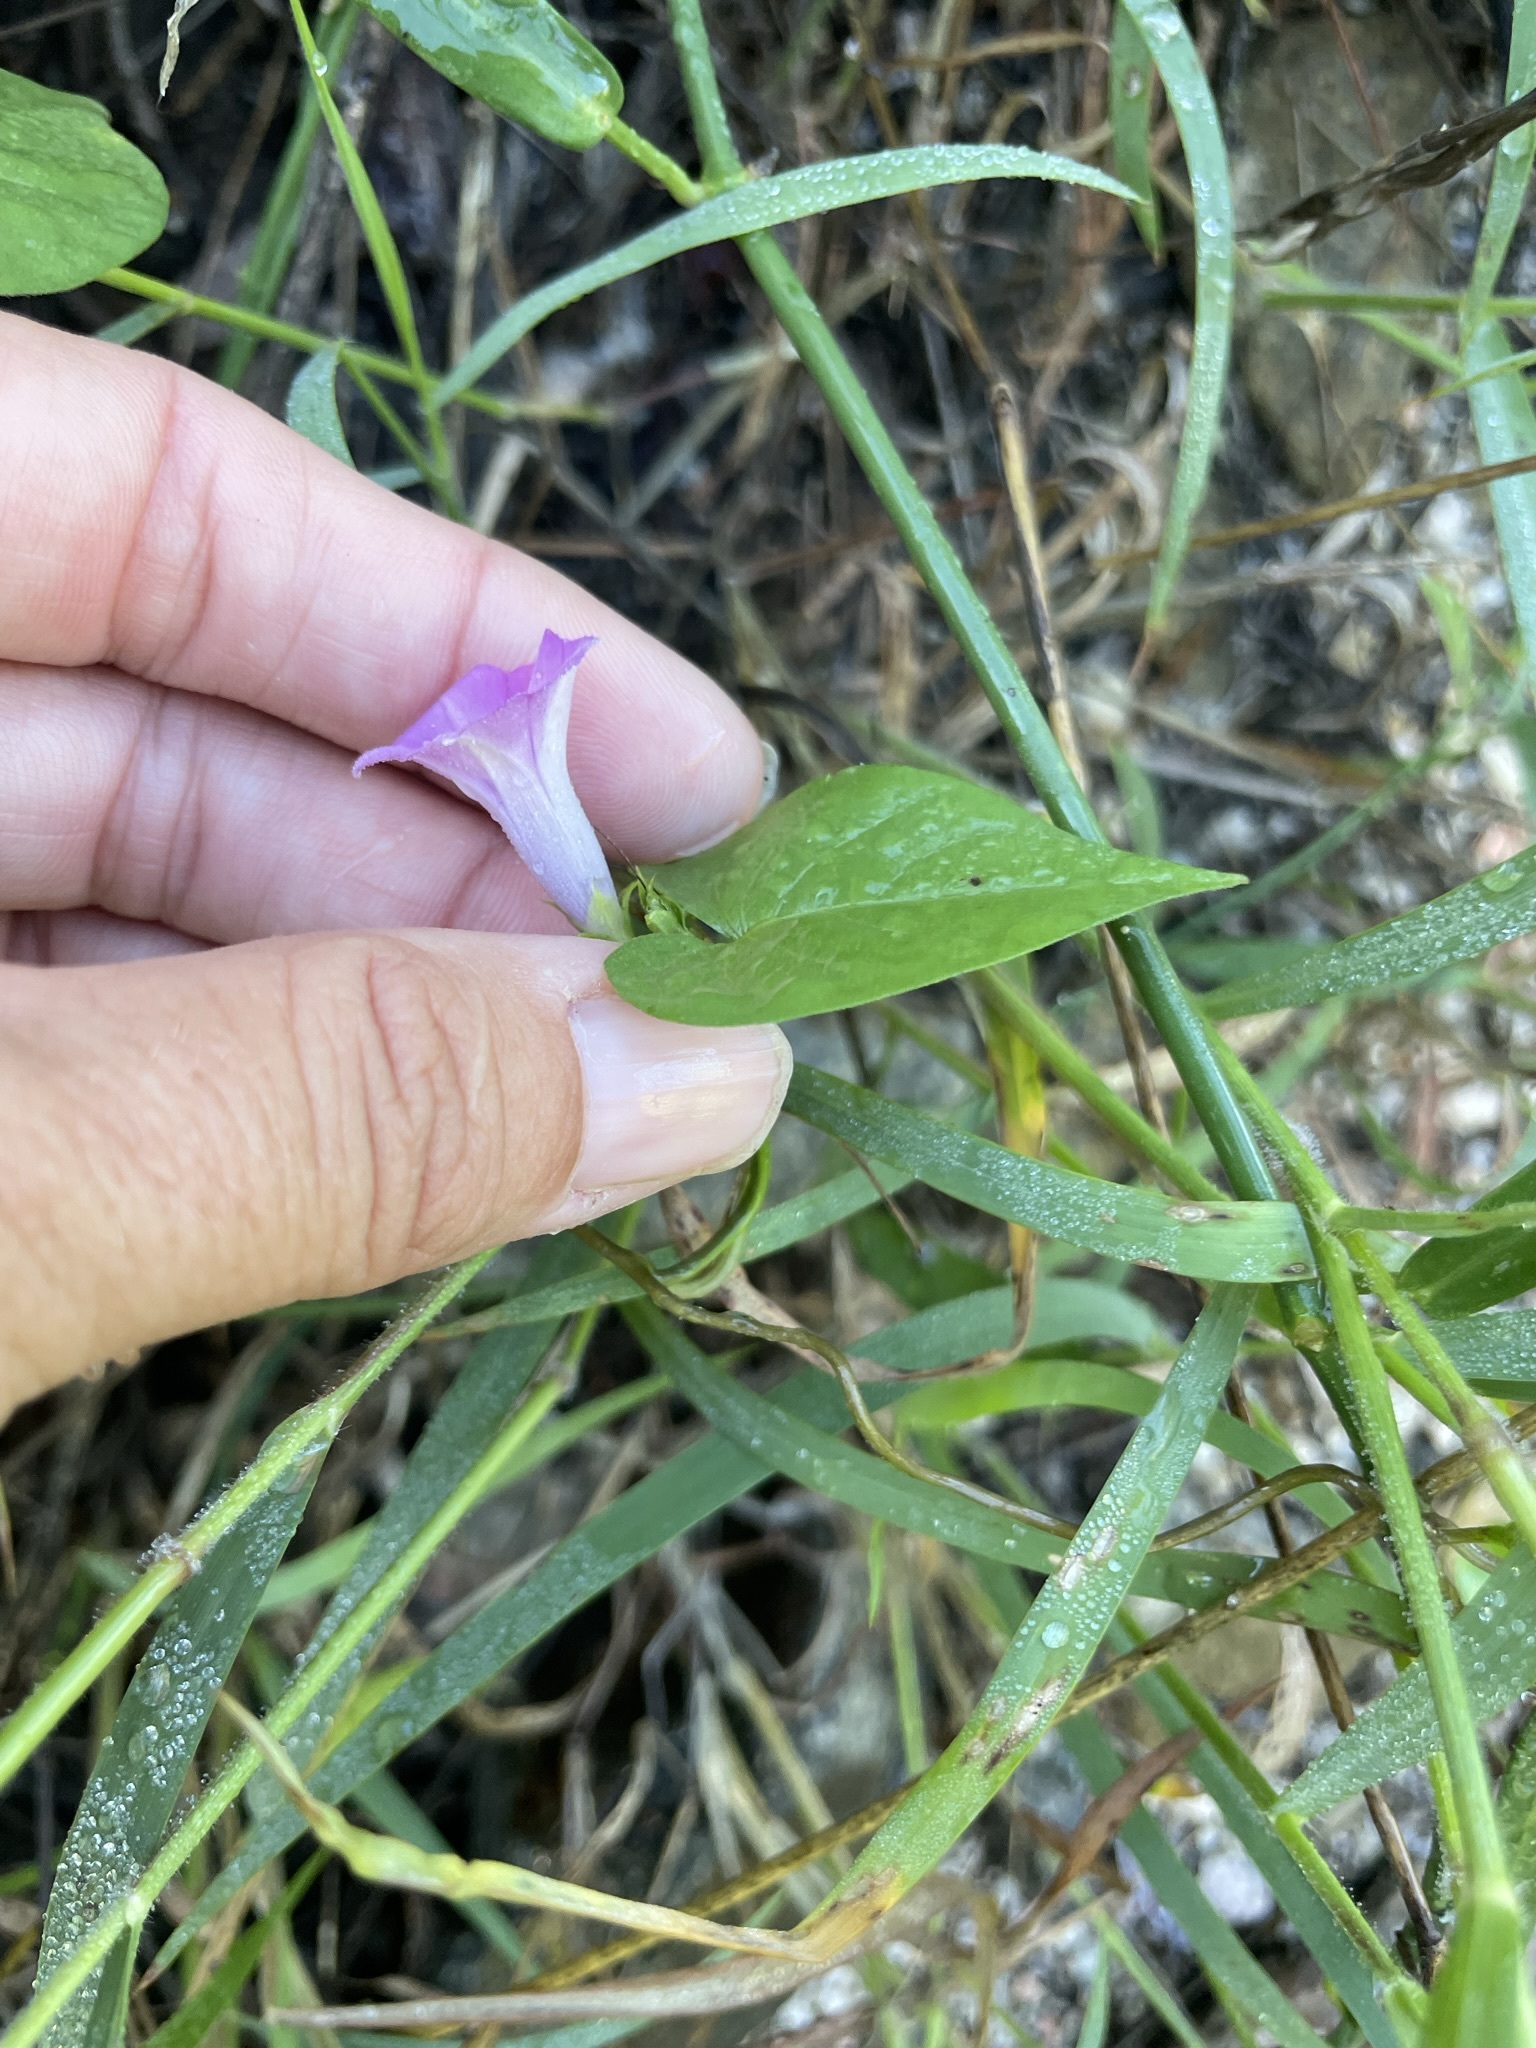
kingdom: Plantae
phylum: Tracheophyta
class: Magnoliopsida
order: Solanales
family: Convolvulaceae
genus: Ipomoea
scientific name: Ipomoea triloba
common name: Little-bell
